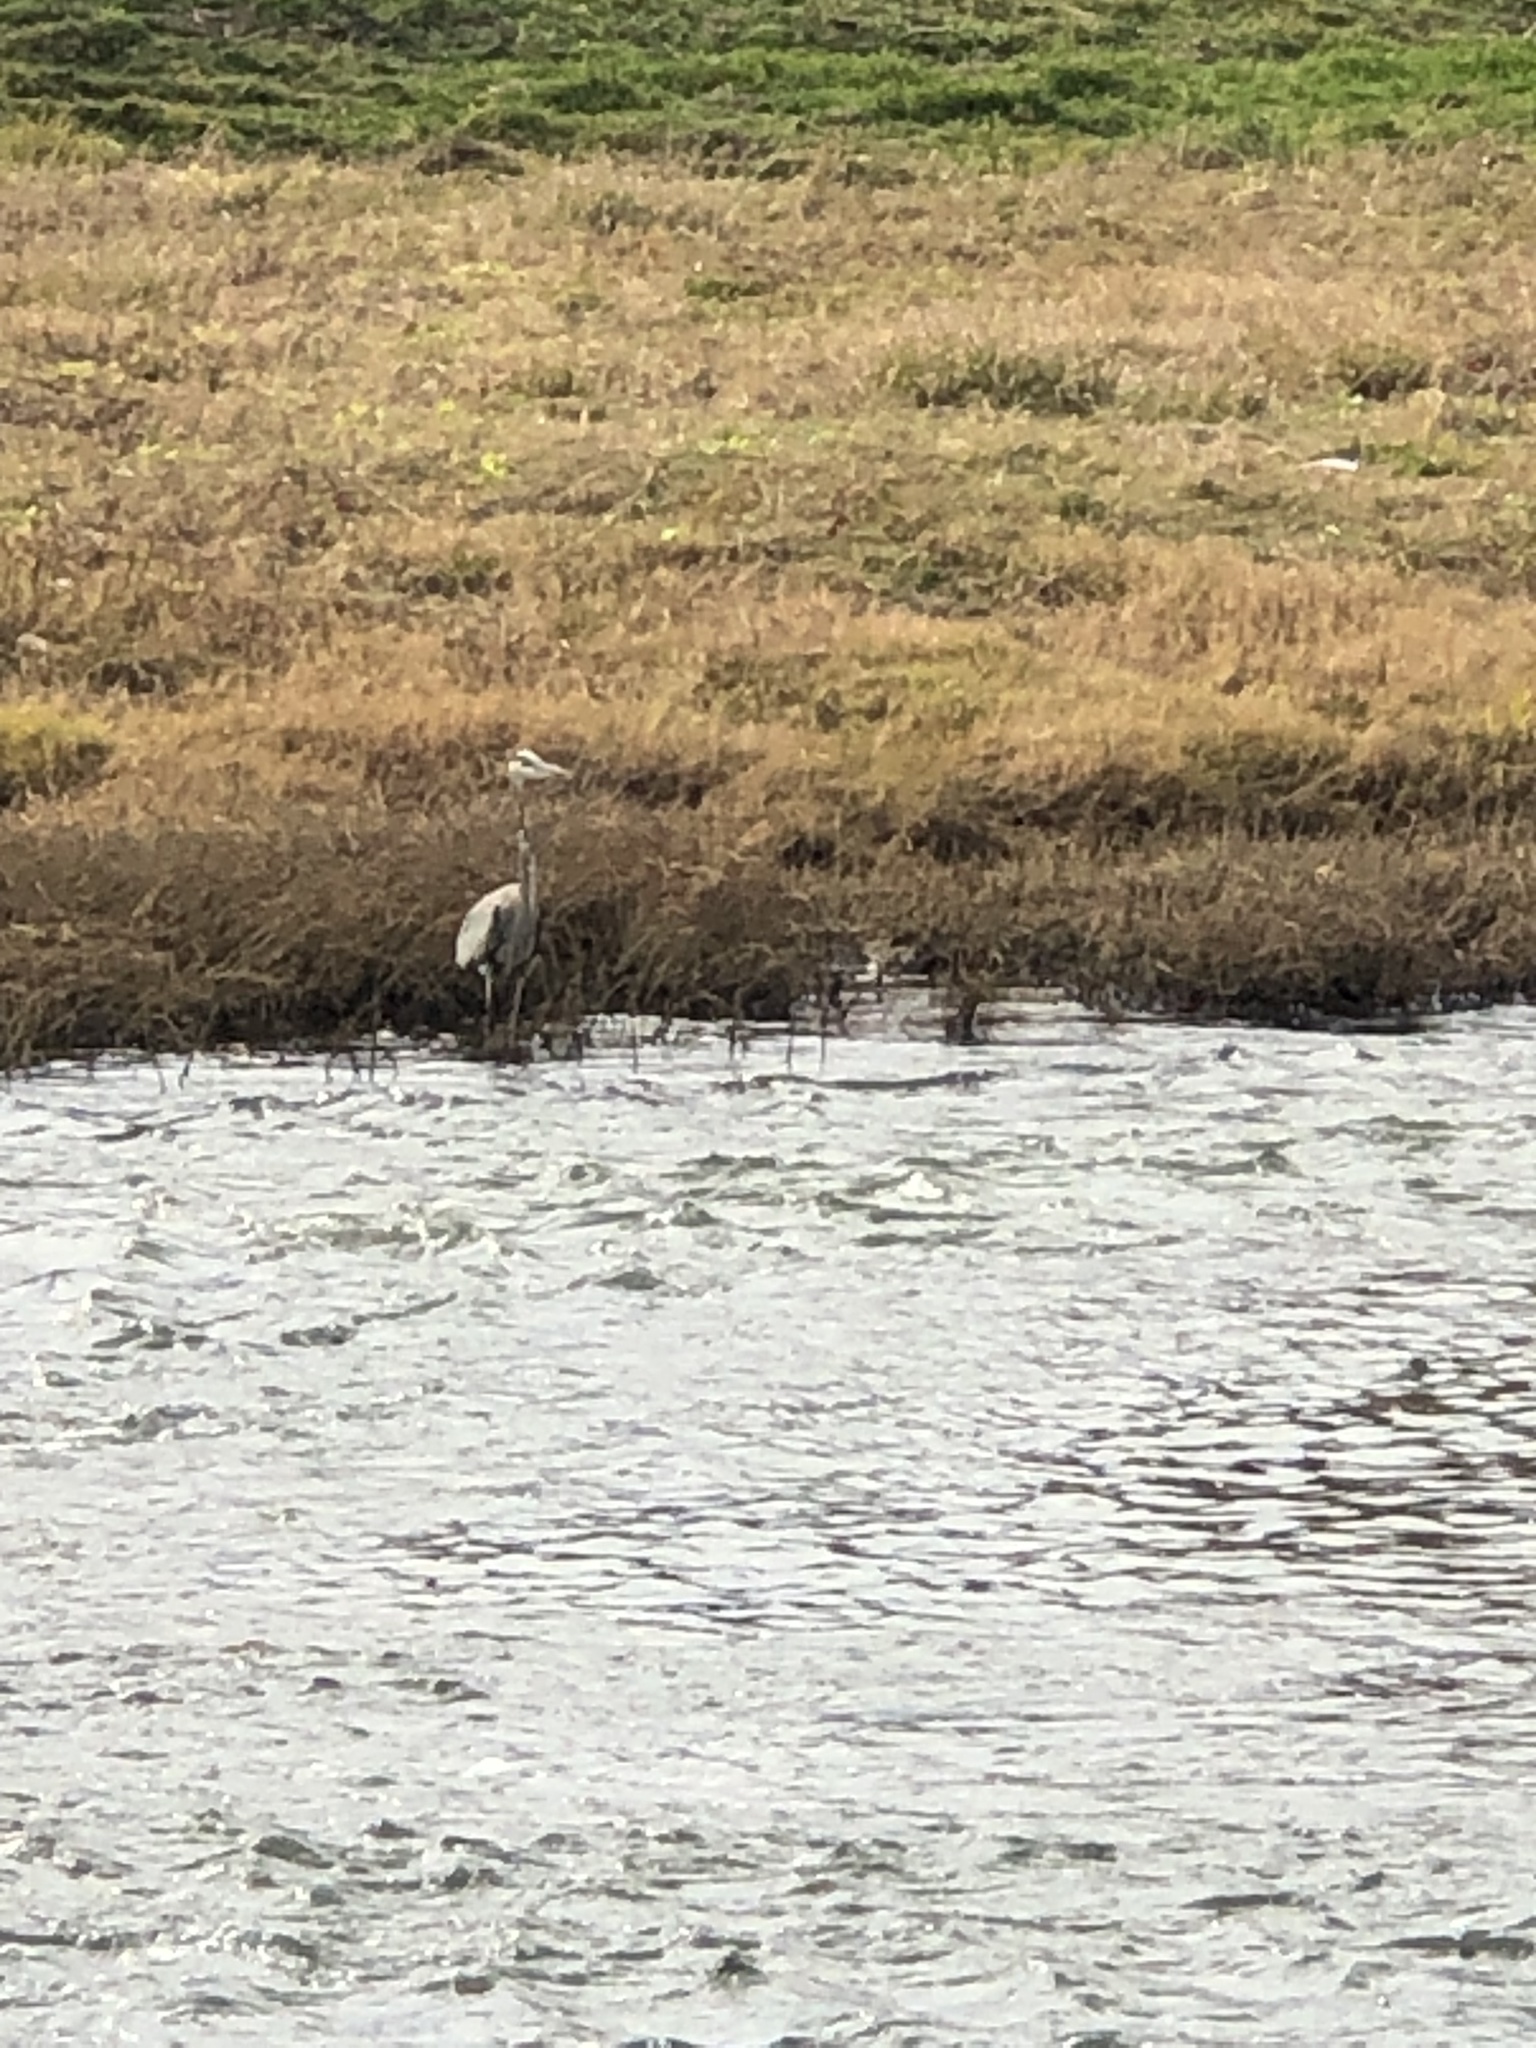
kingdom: Animalia
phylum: Chordata
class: Aves
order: Pelecaniformes
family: Ardeidae
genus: Ardea
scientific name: Ardea herodias
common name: Great blue heron
